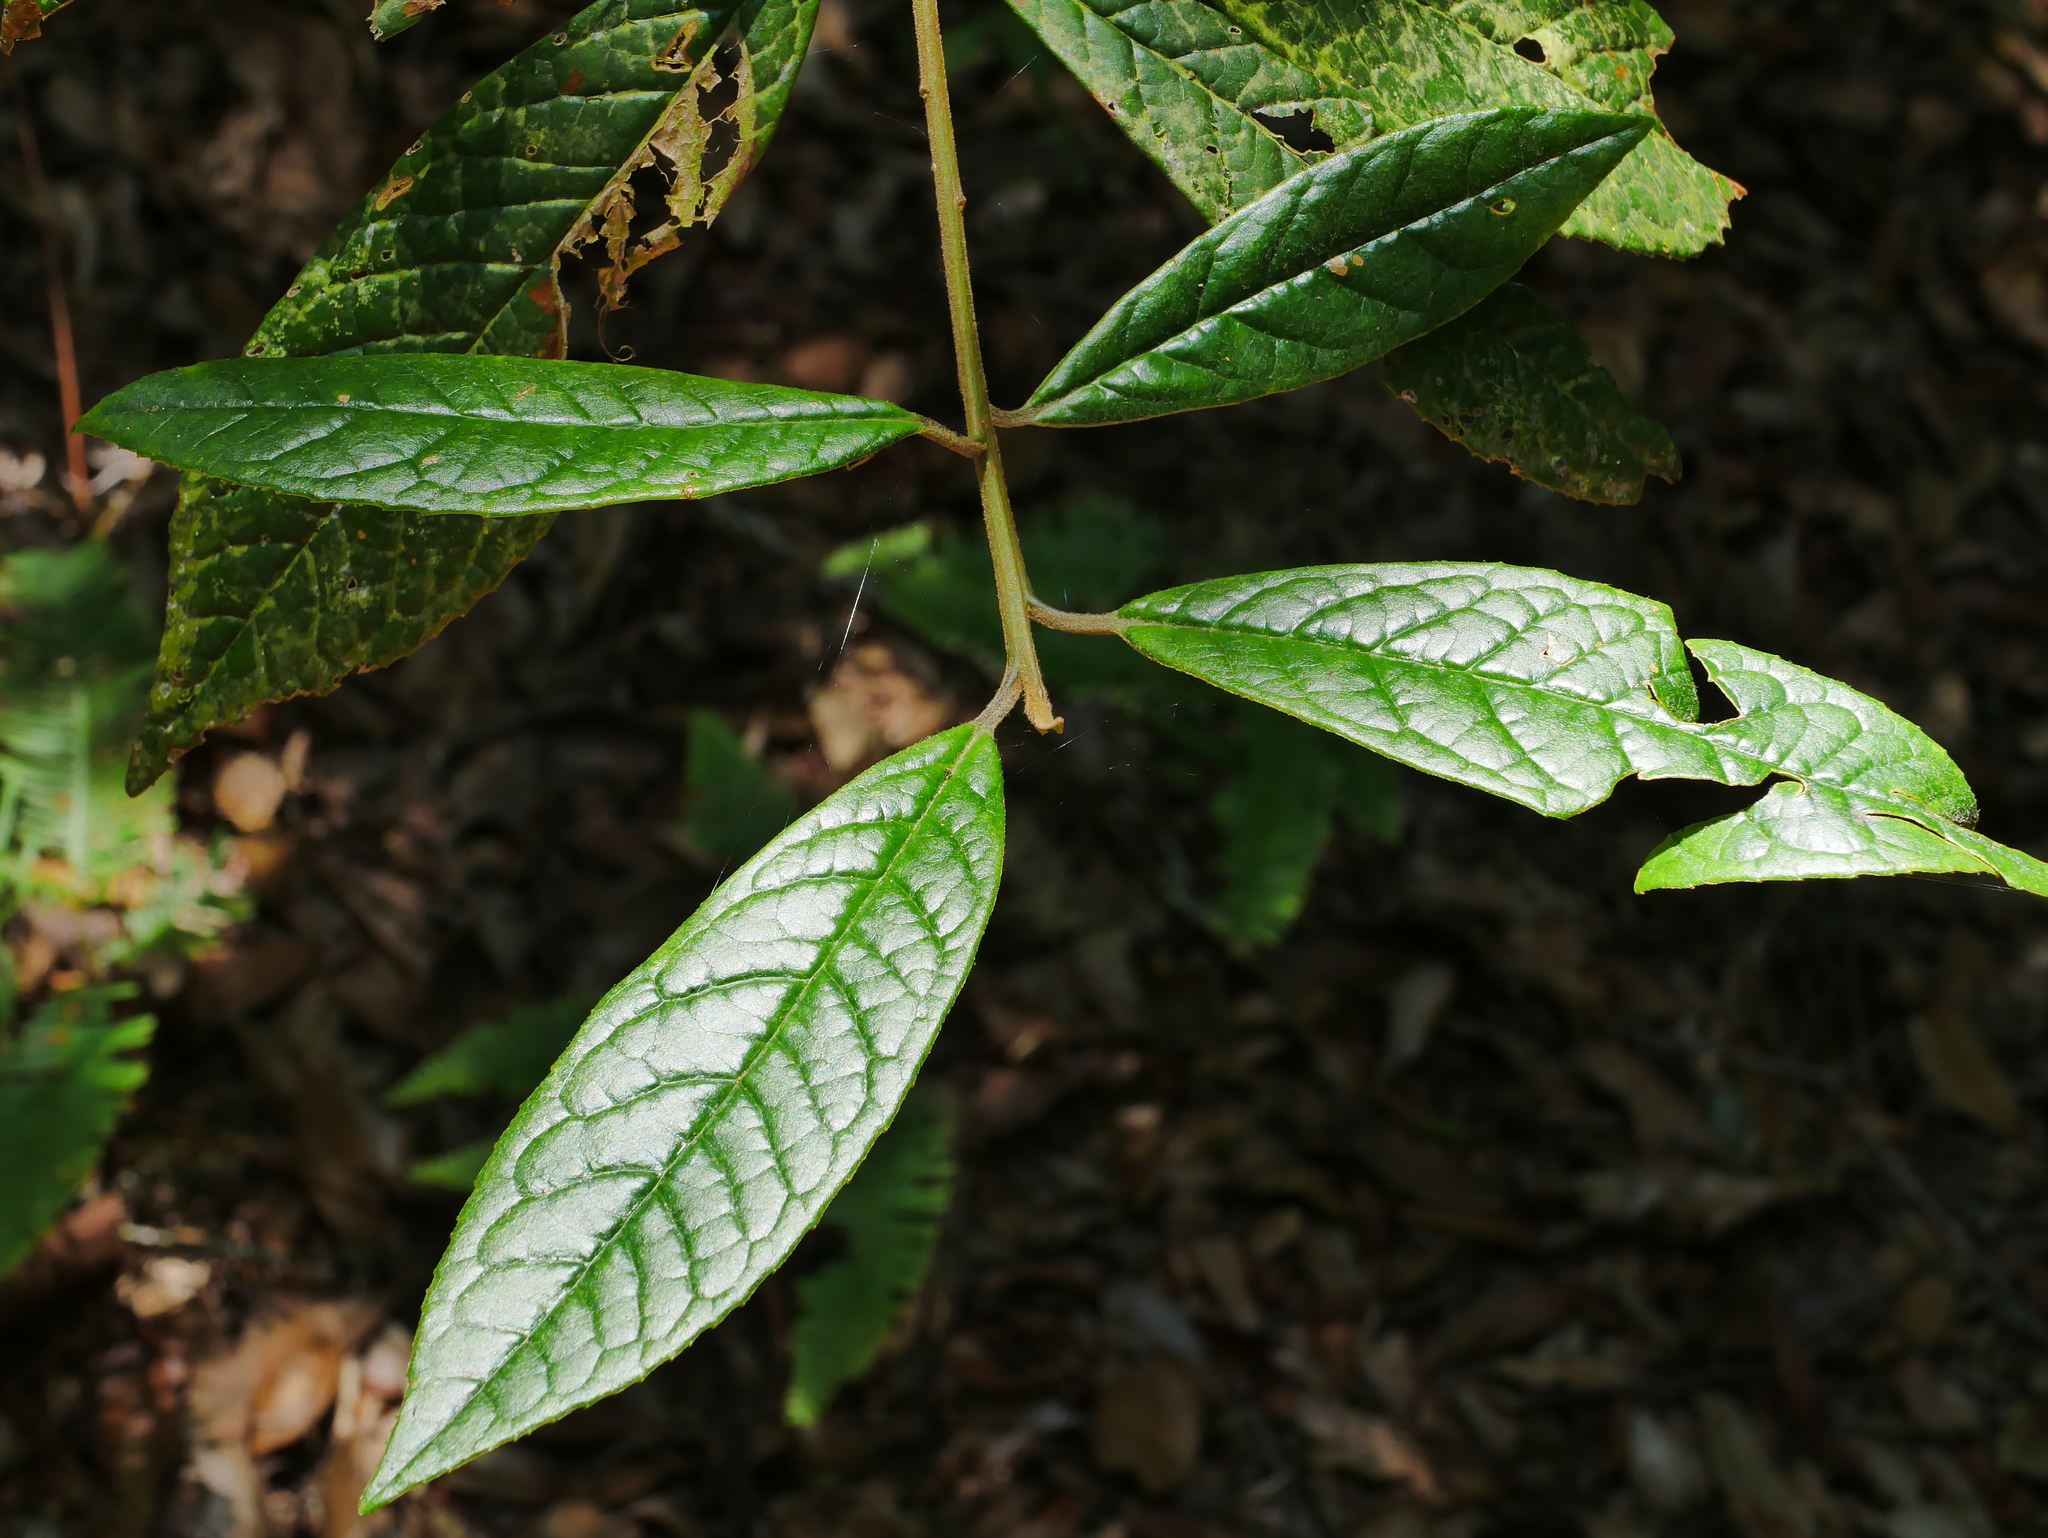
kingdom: Plantae
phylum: Tracheophyta
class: Magnoliopsida
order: Ericales
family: Symplocaceae
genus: Symplocos
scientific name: Symplocos stellaris
